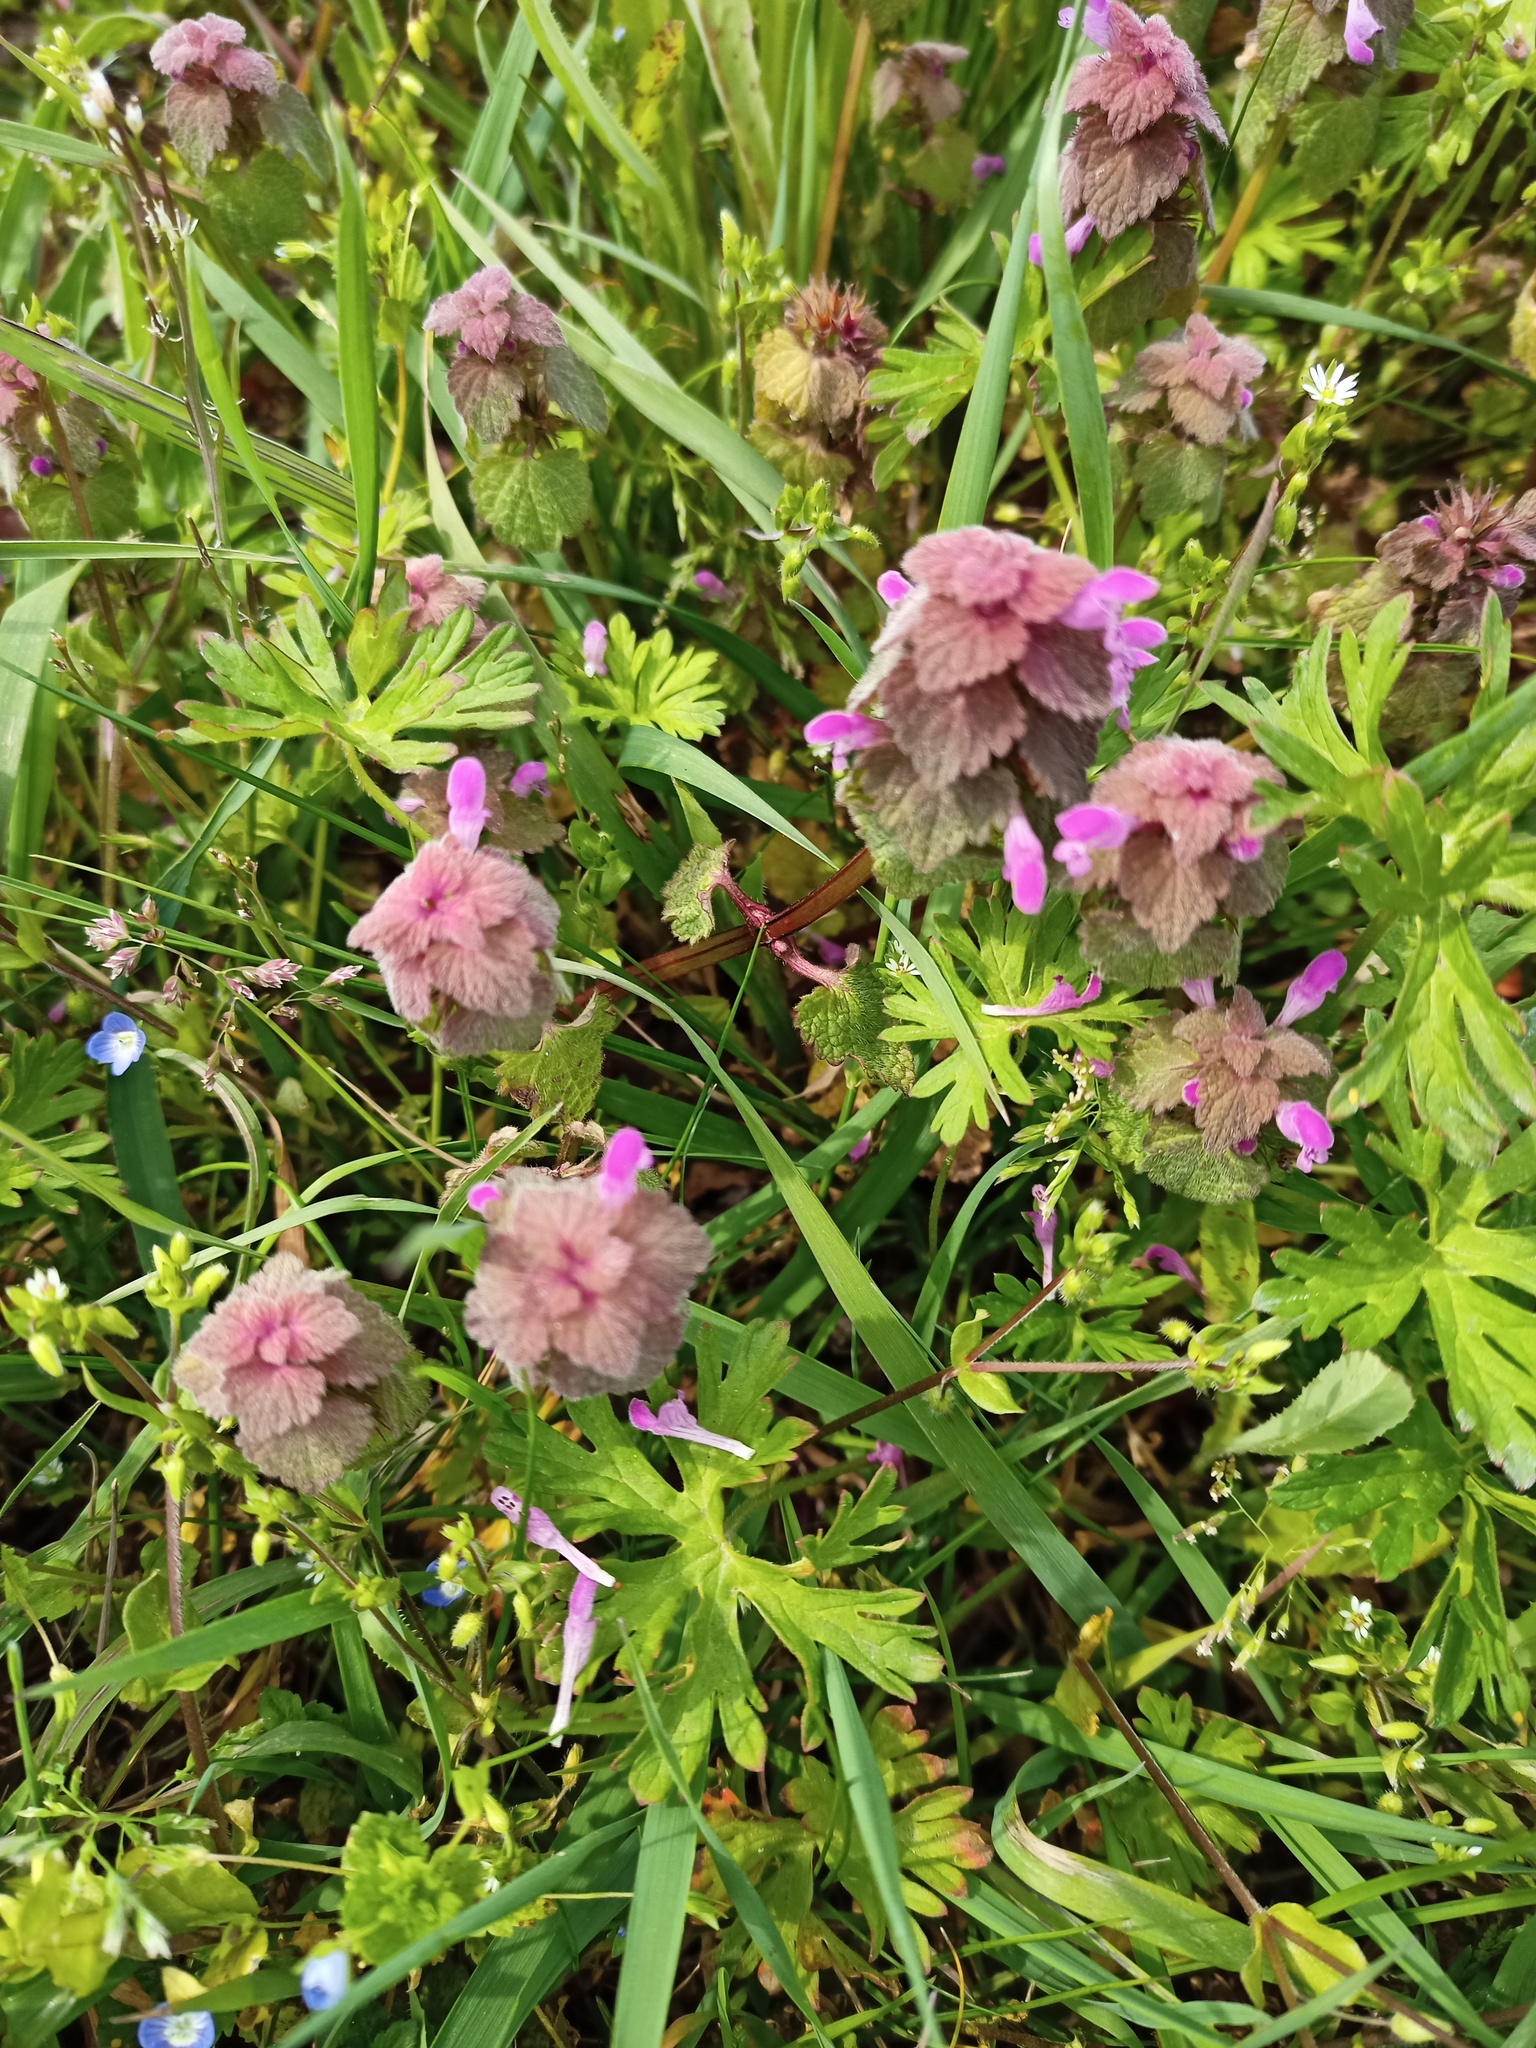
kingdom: Plantae
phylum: Tracheophyta
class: Magnoliopsida
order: Lamiales
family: Lamiaceae
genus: Lamium
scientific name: Lamium purpureum
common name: Red dead-nettle
